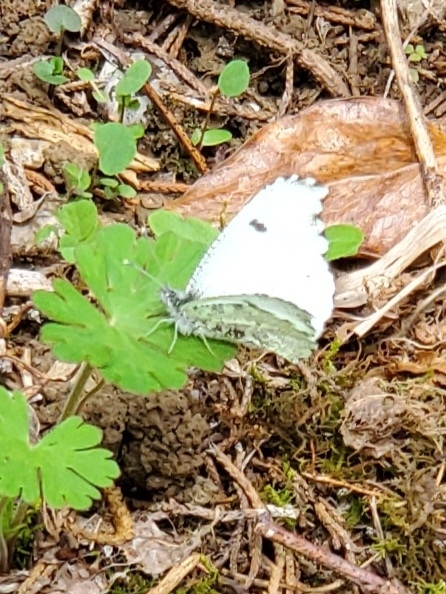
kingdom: Animalia
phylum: Arthropoda
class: Insecta
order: Lepidoptera
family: Pieridae
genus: Anthocharis
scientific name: Anthocharis midea
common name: Falcate orangetip
